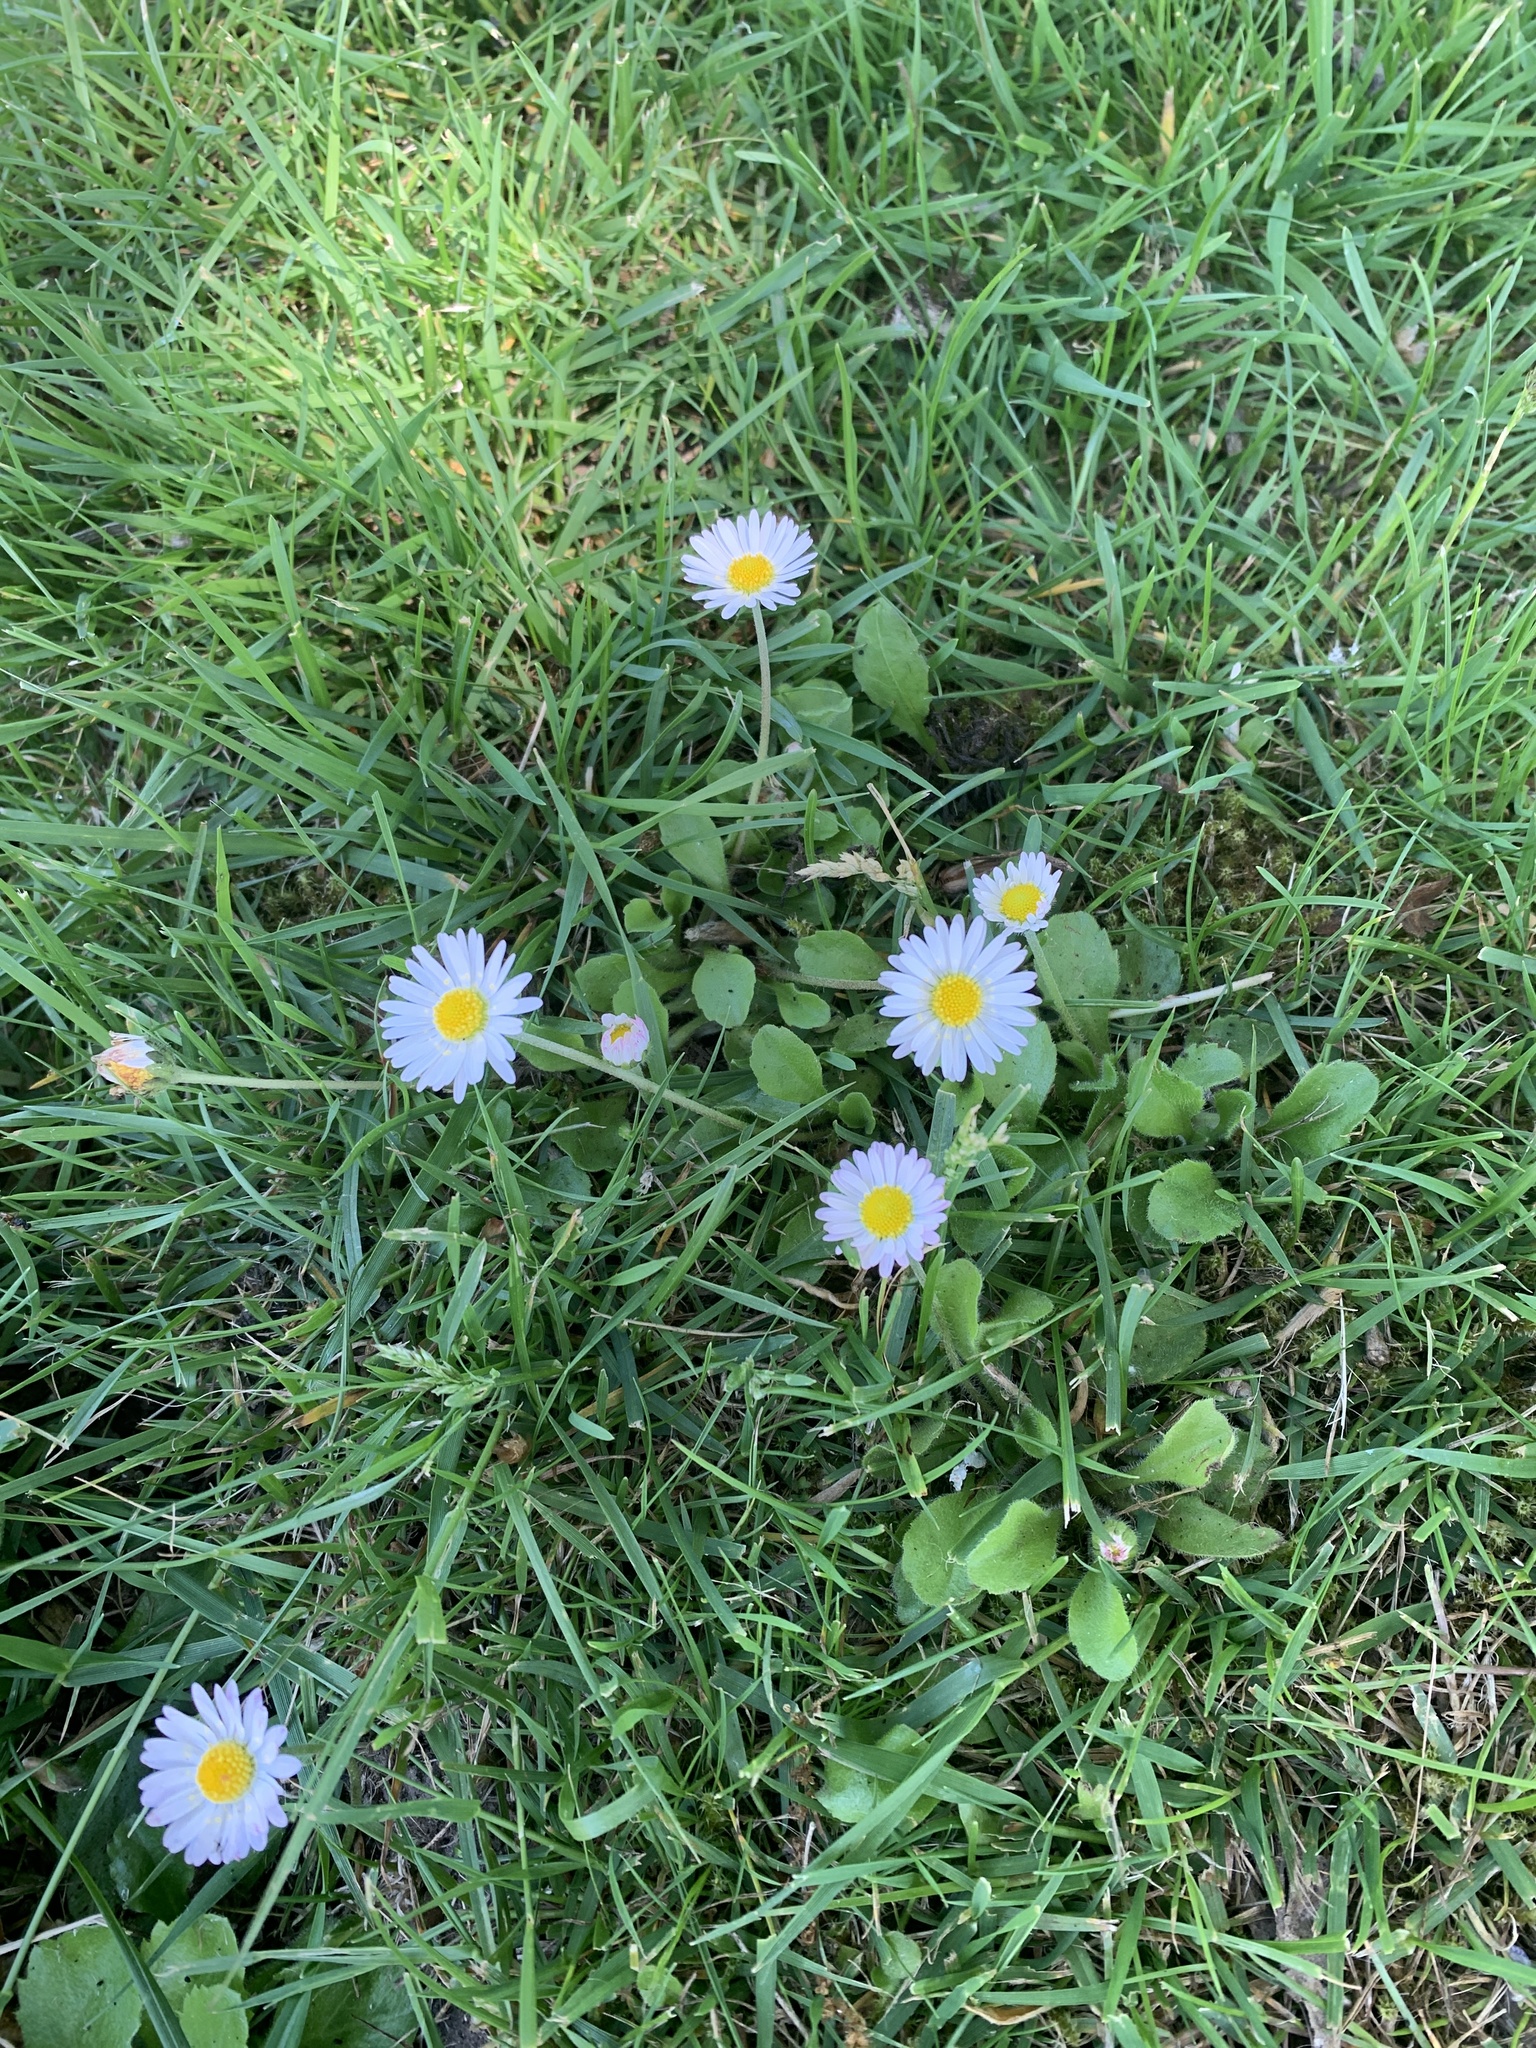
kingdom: Plantae
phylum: Tracheophyta
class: Magnoliopsida
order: Asterales
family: Asteraceae
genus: Bellis
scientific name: Bellis perennis
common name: Lawndaisy
